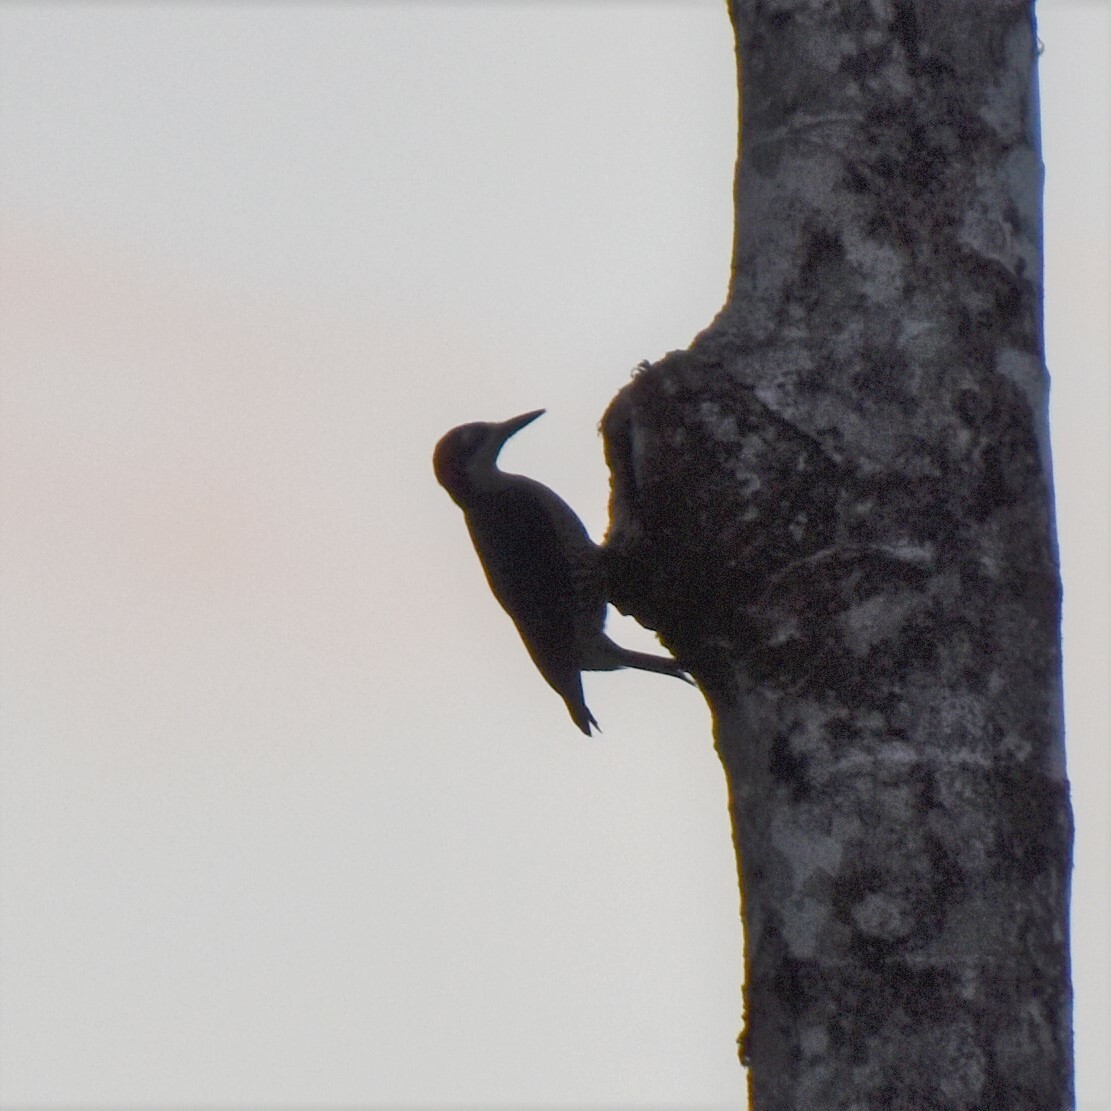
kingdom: Animalia
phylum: Chordata
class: Aves
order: Piciformes
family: Picidae
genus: Melanerpes
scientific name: Melanerpes pucherani
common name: Black-cheeked woodpecker
